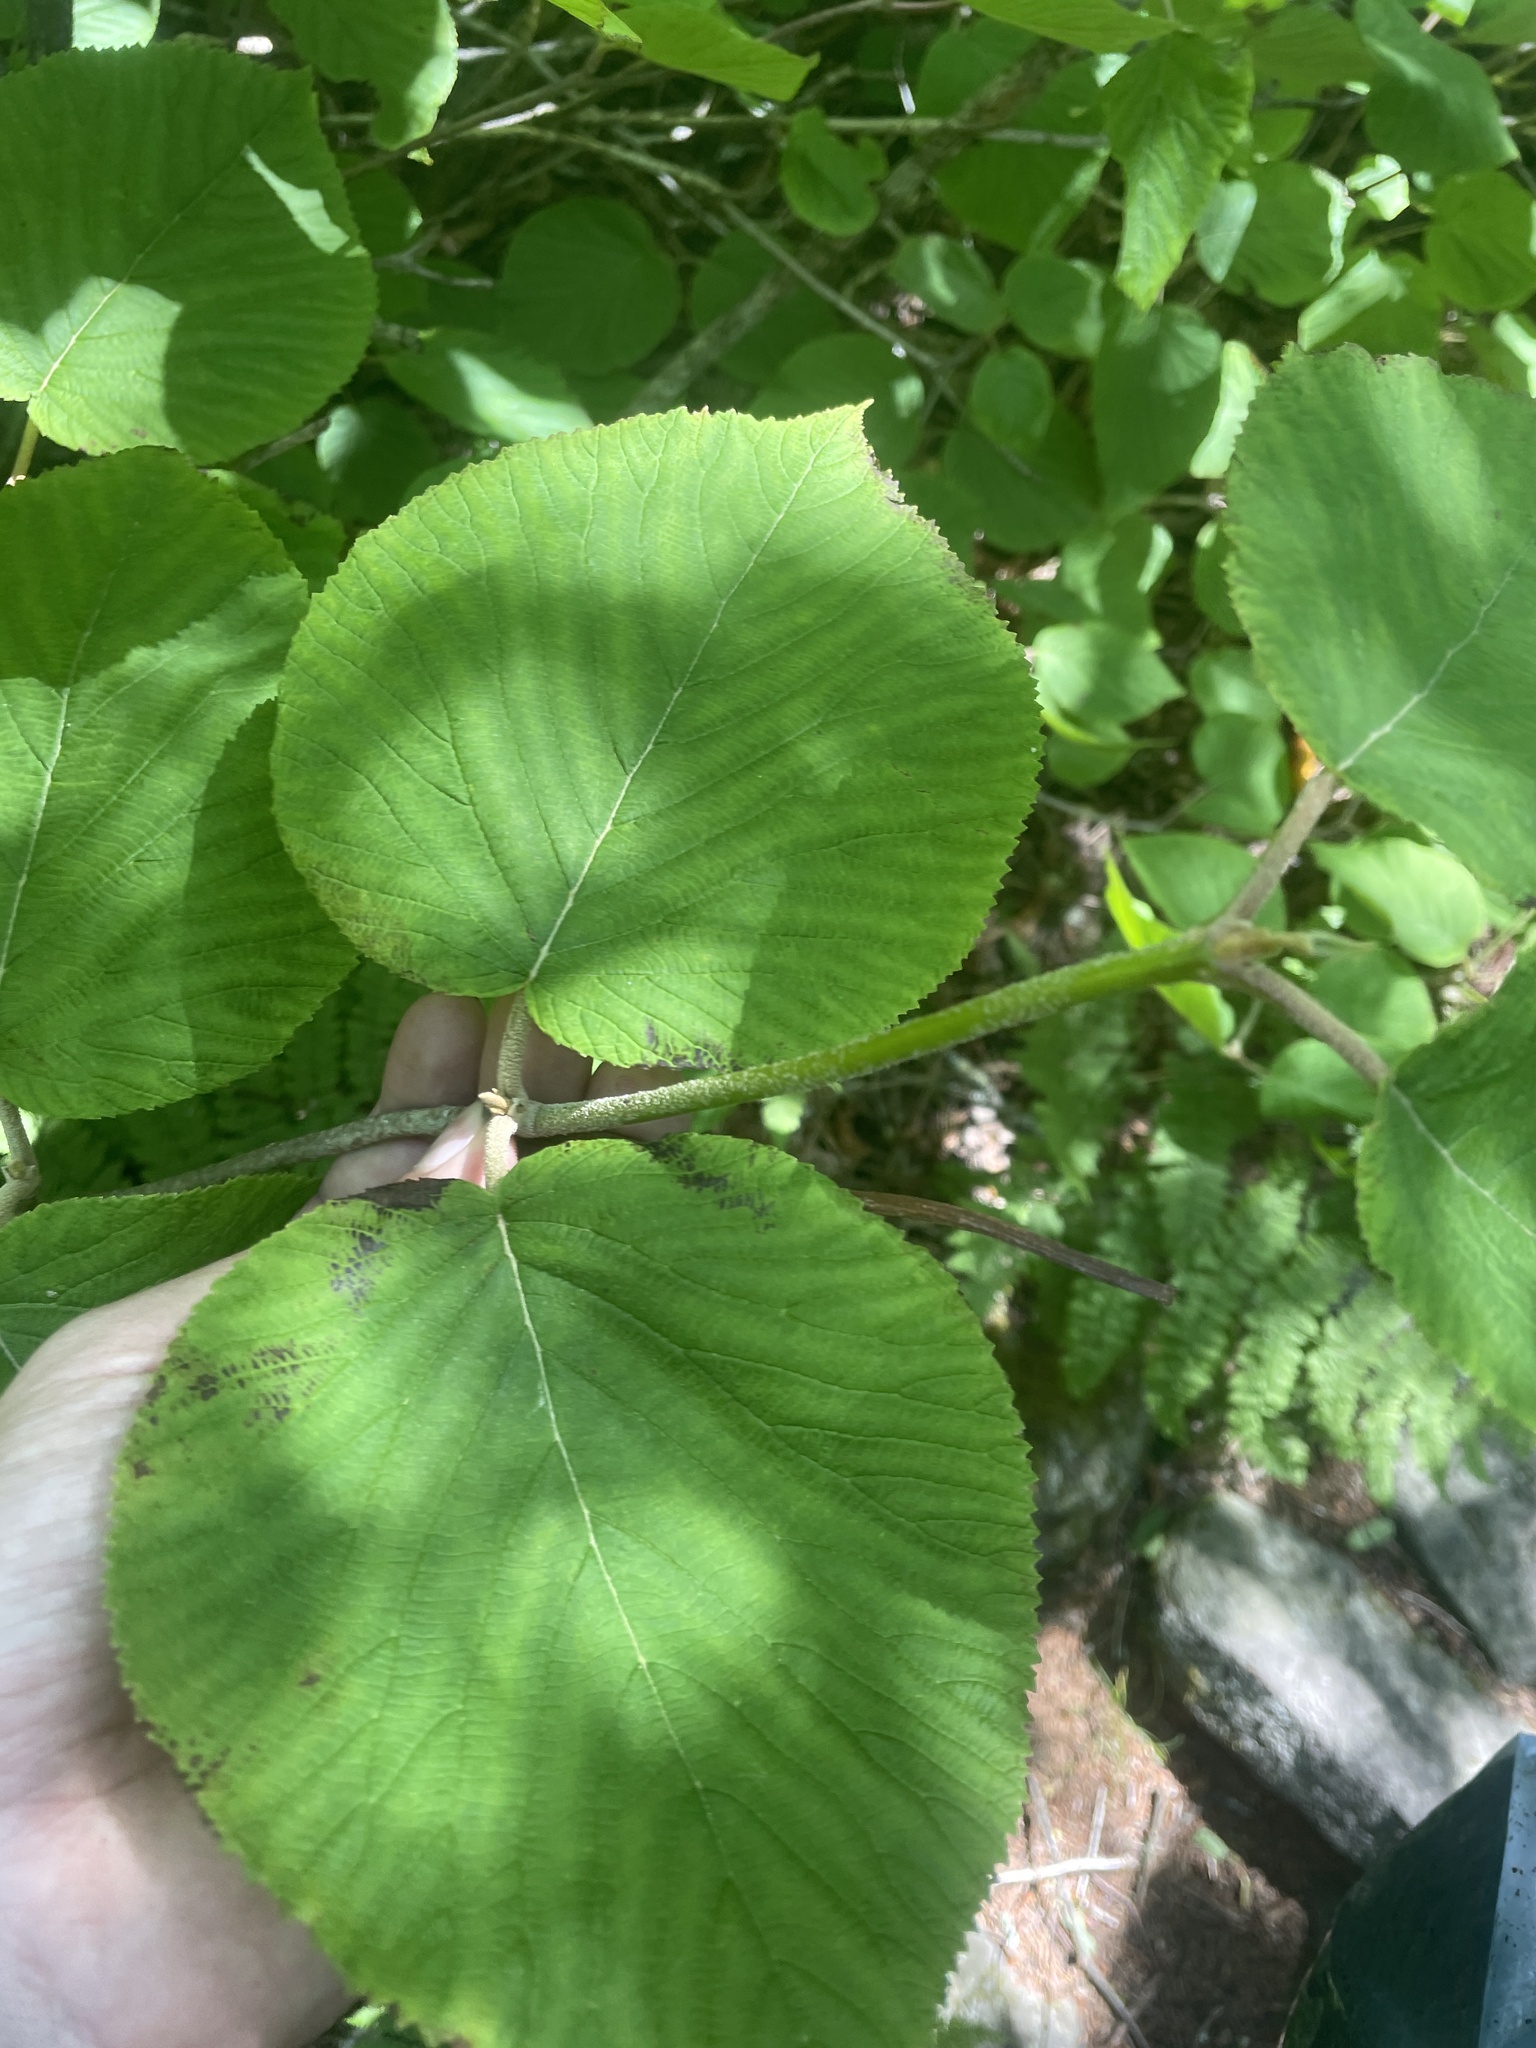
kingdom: Plantae
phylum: Tracheophyta
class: Magnoliopsida
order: Dipsacales
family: Viburnaceae
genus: Viburnum
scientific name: Viburnum lantanoides
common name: Hobblebush
